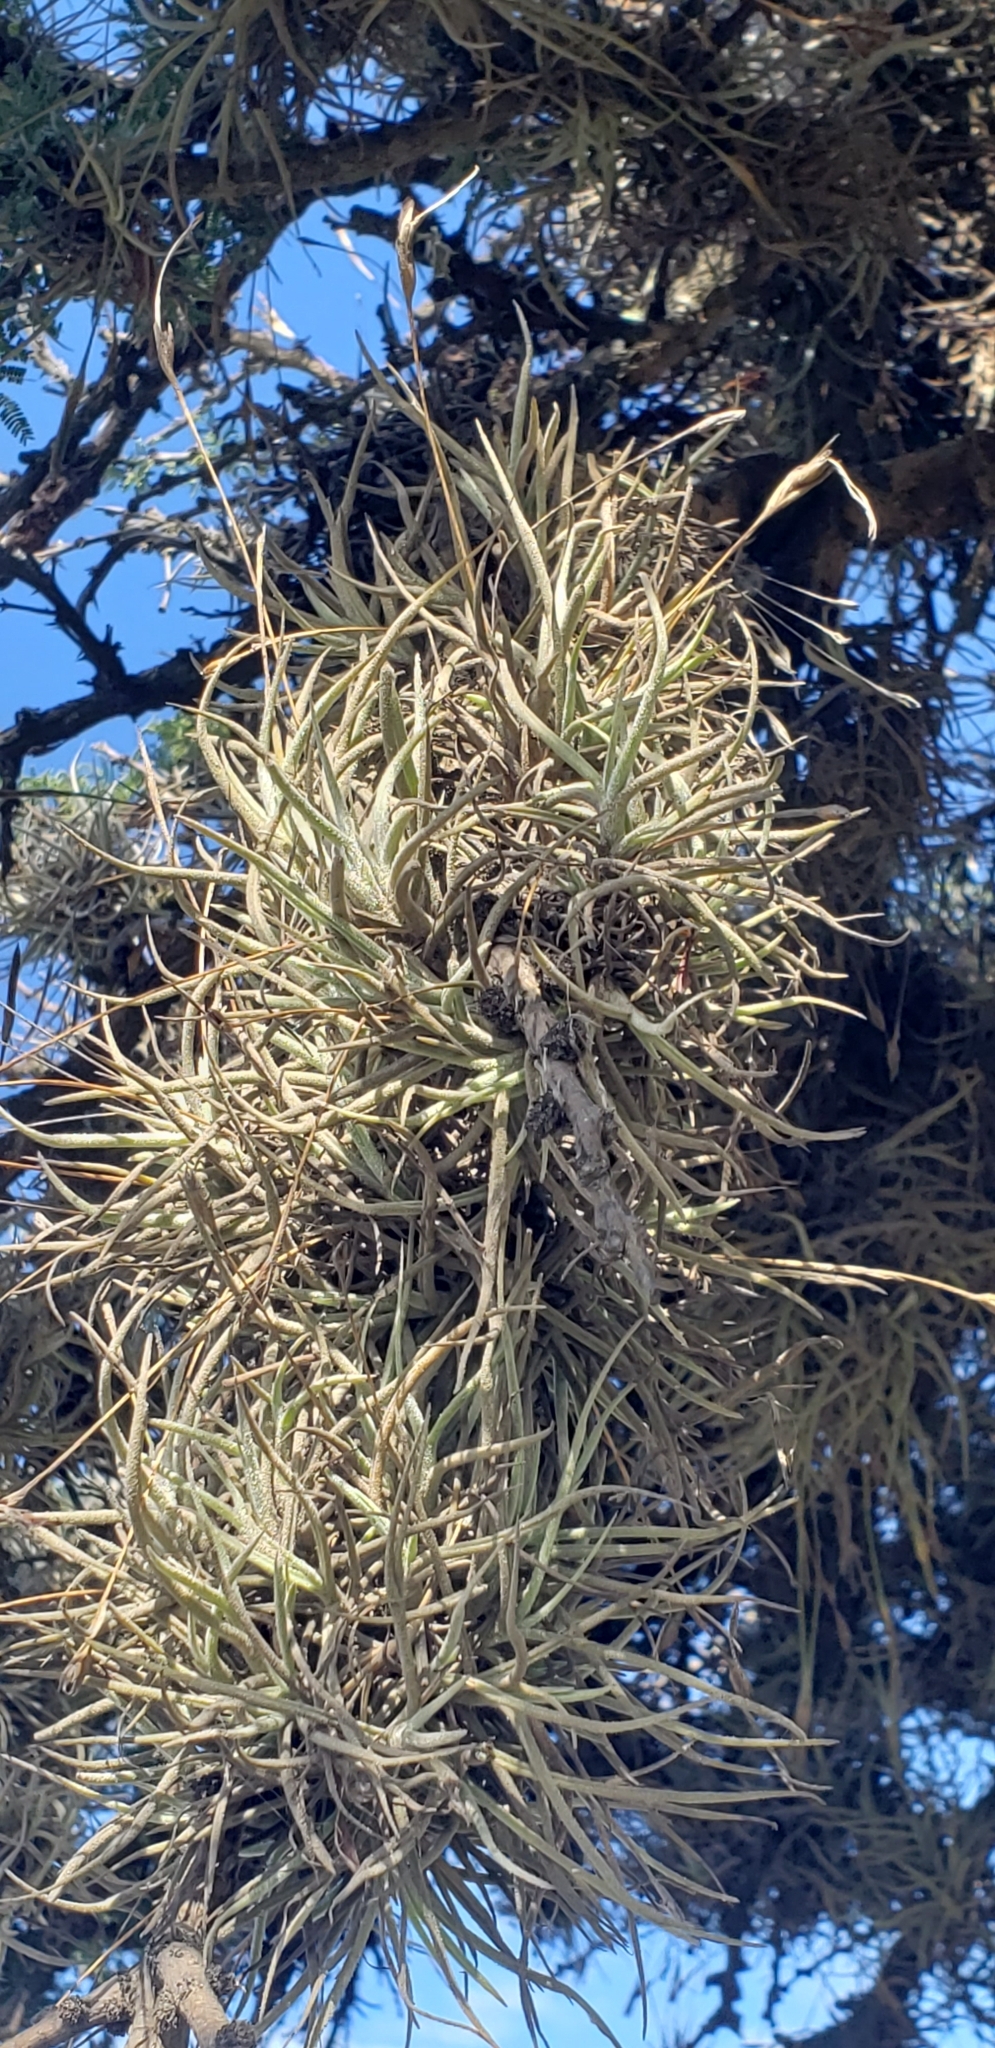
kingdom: Plantae
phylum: Tracheophyta
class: Liliopsida
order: Poales
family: Bromeliaceae
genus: Tillandsia
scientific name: Tillandsia recurvata
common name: Small ballmoss
